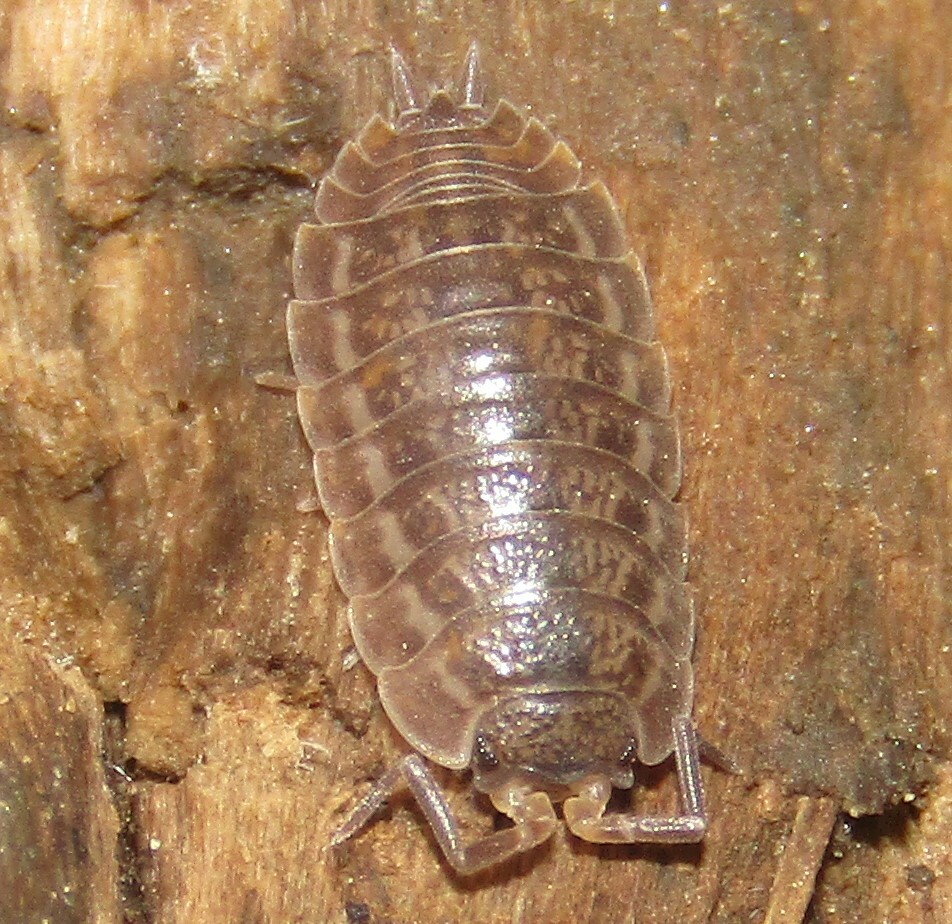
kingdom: Animalia
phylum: Arthropoda
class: Malacostraca
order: Isopoda
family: Trachelipodidae
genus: Trachelipus
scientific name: Trachelipus rathkii
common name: Isopod
